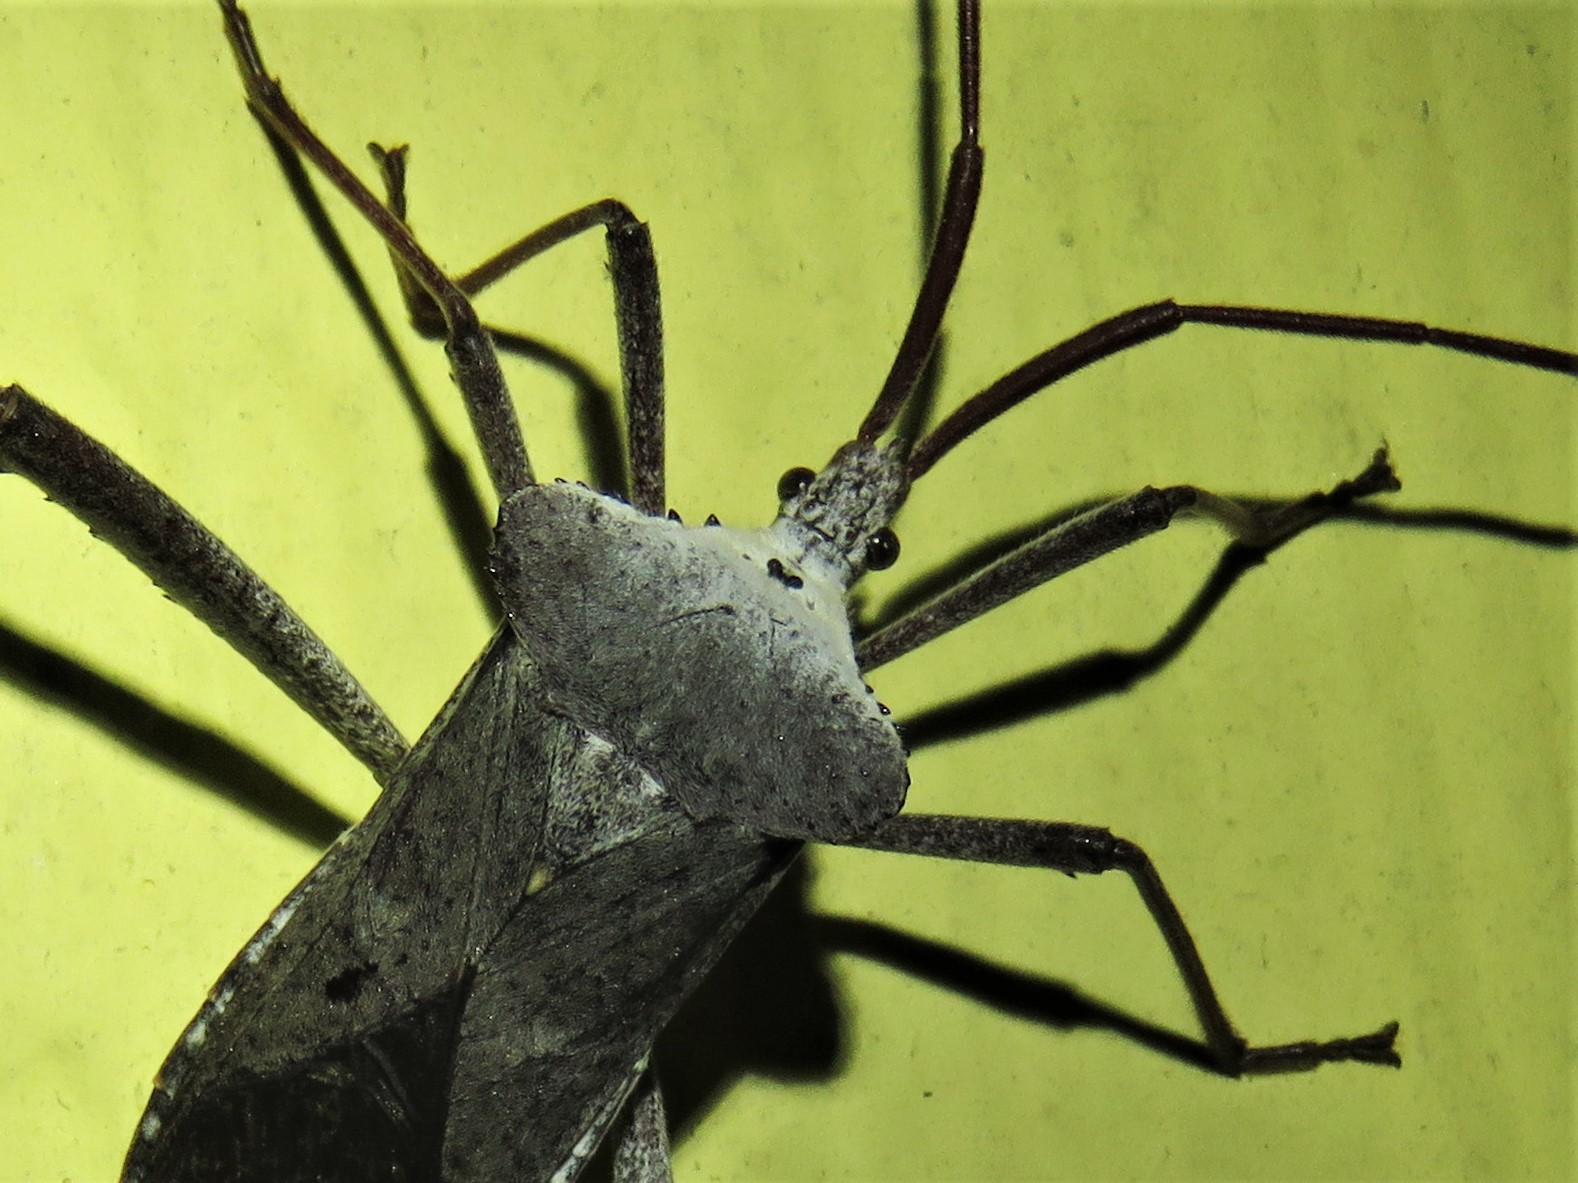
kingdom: Animalia
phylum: Arthropoda
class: Insecta
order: Hemiptera
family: Coreidae
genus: Acanthocephala
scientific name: Acanthocephala declivis
